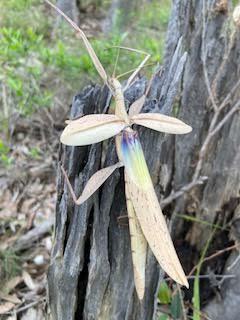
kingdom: Animalia
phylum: Arthropoda
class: Insecta
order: Phasmida
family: Phasmatidae
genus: Tropidoderus
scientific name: Tropidoderus childrenii
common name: Children's stick insect
